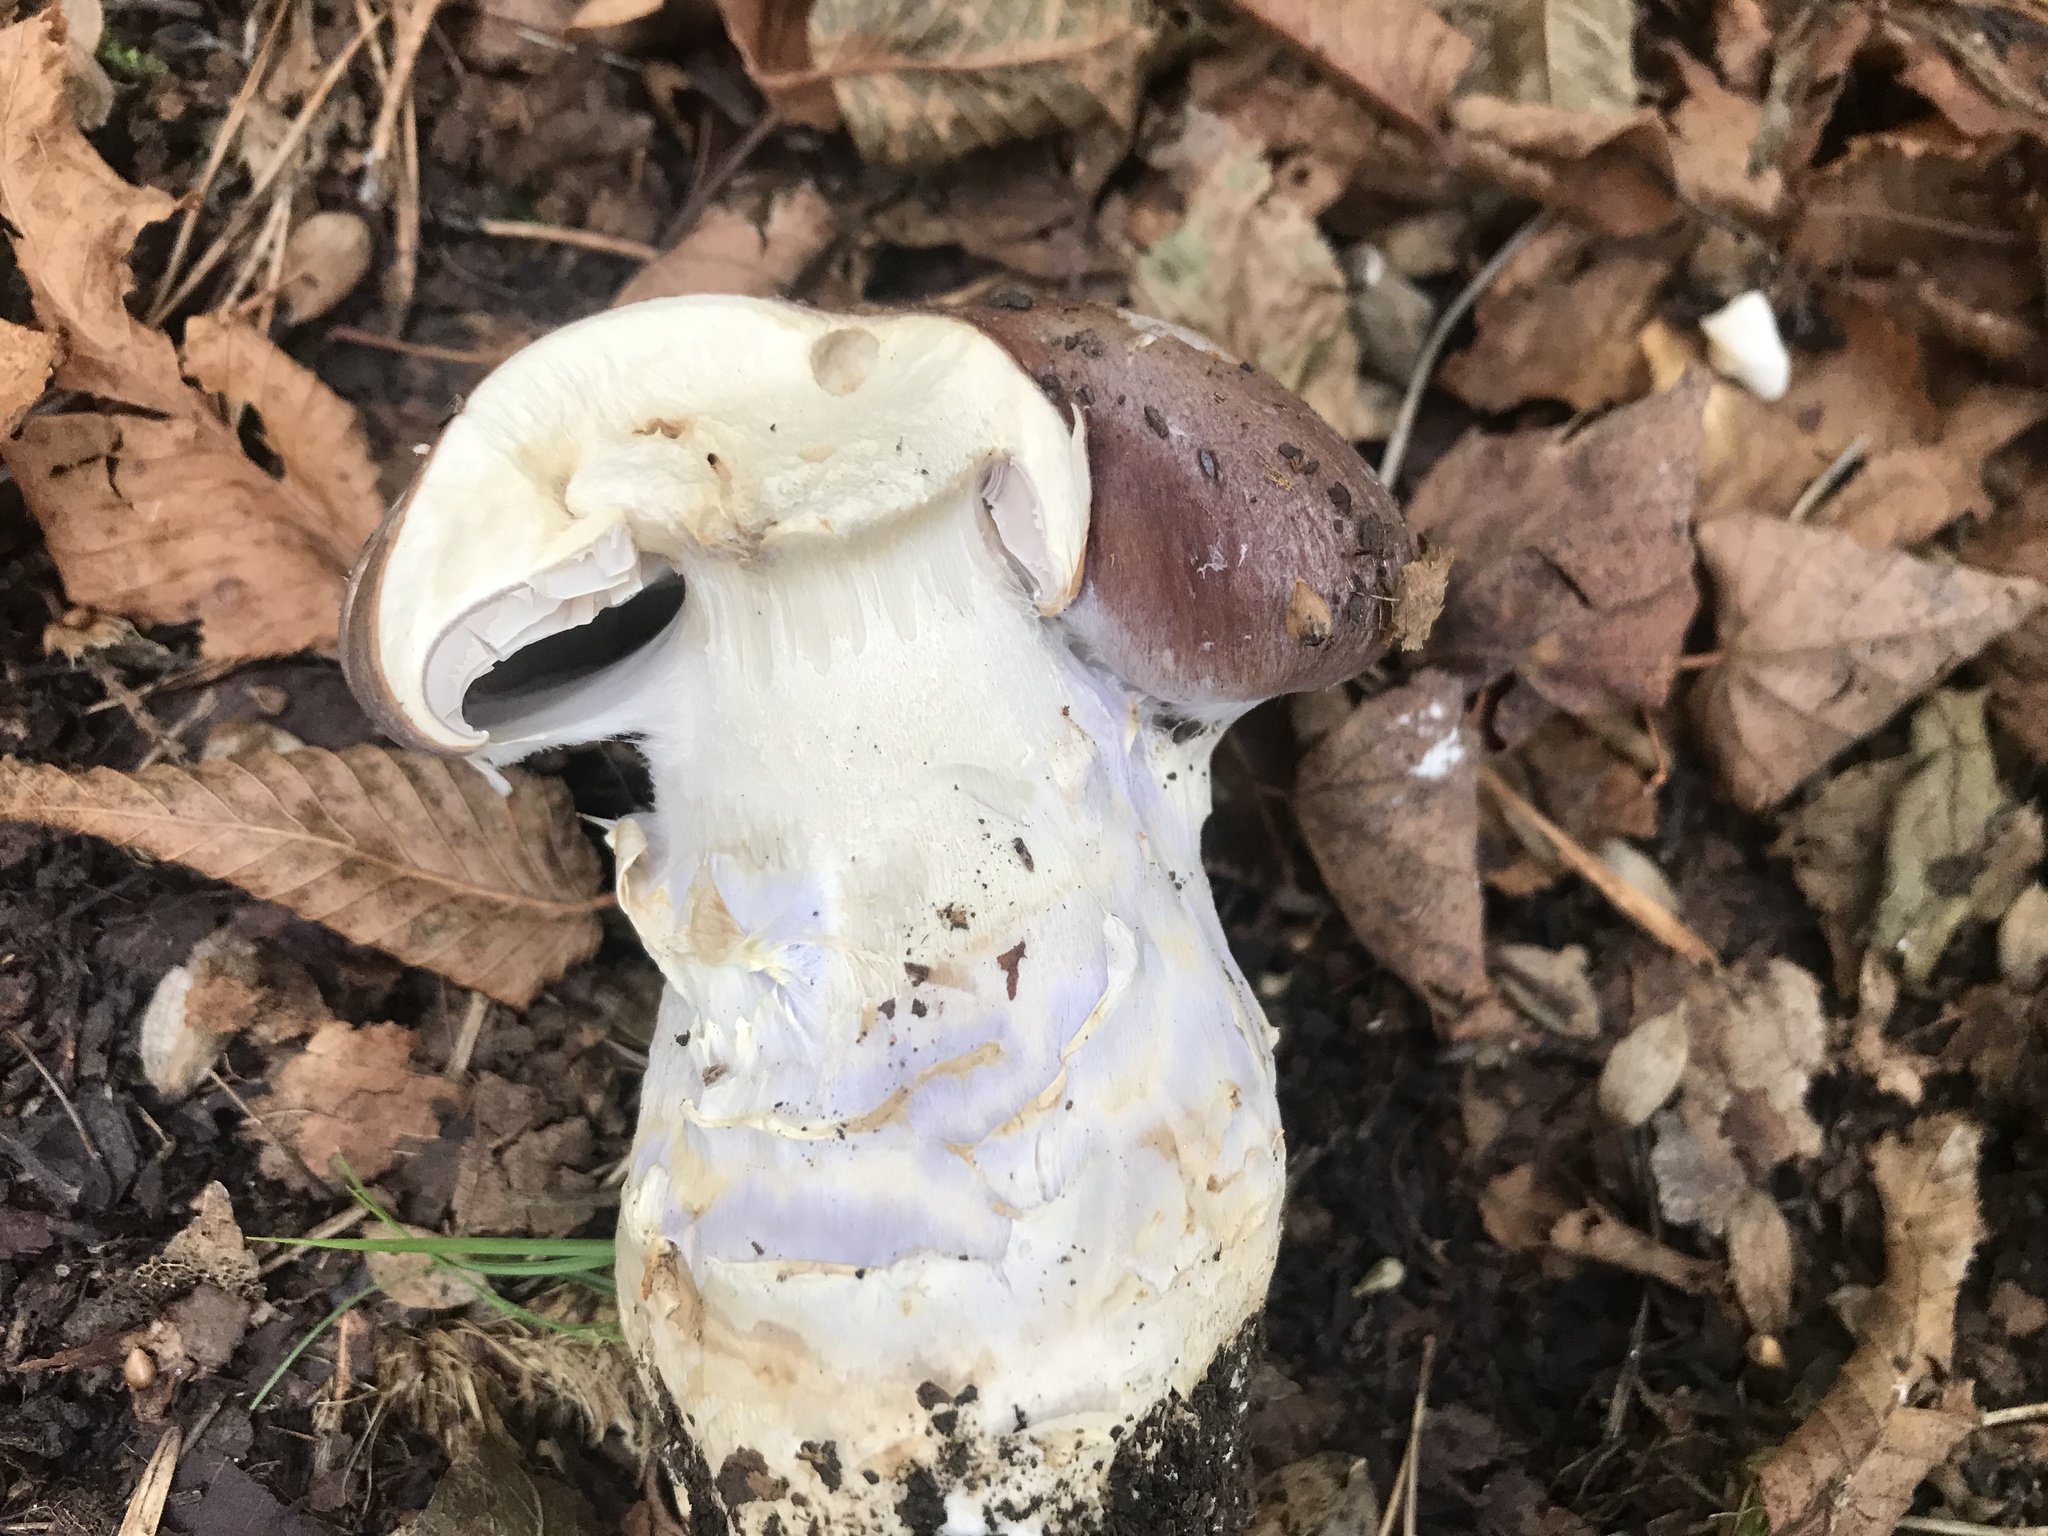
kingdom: Fungi
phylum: Basidiomycota
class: Agaricomycetes
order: Agaricales
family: Cortinariaceae
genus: Cortinarius
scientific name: Cortinarius praestans
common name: Goliath webcap
